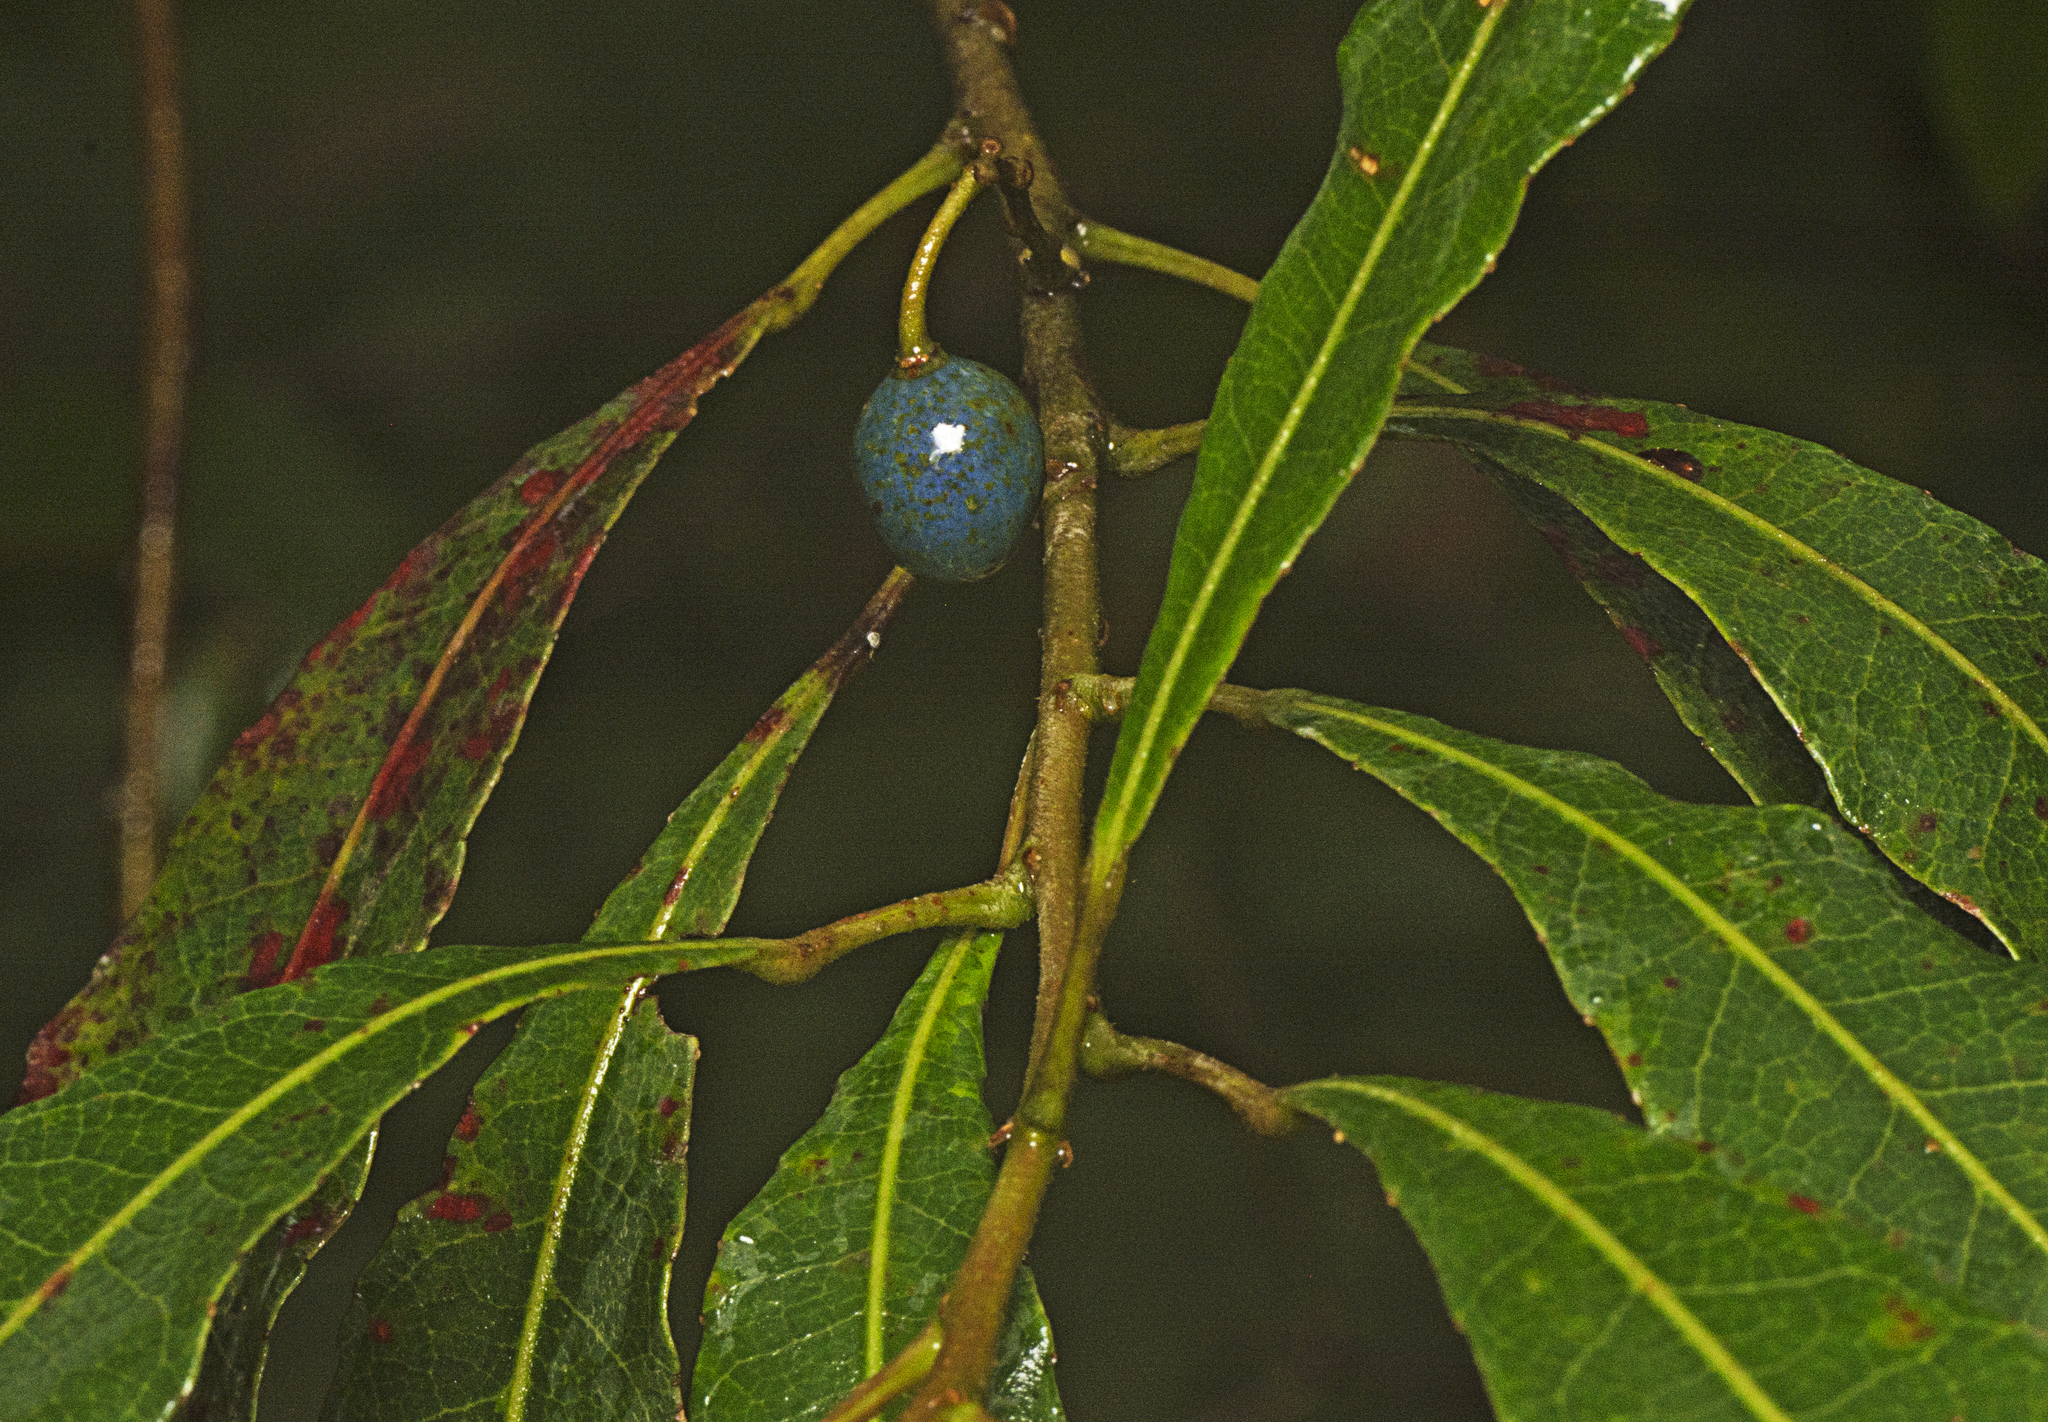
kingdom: Plantae
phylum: Tracheophyta
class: Magnoliopsida
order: Oxalidales
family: Elaeocarpaceae
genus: Elaeocarpus
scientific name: Elaeocarpus reticulatus
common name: Ash quandong
